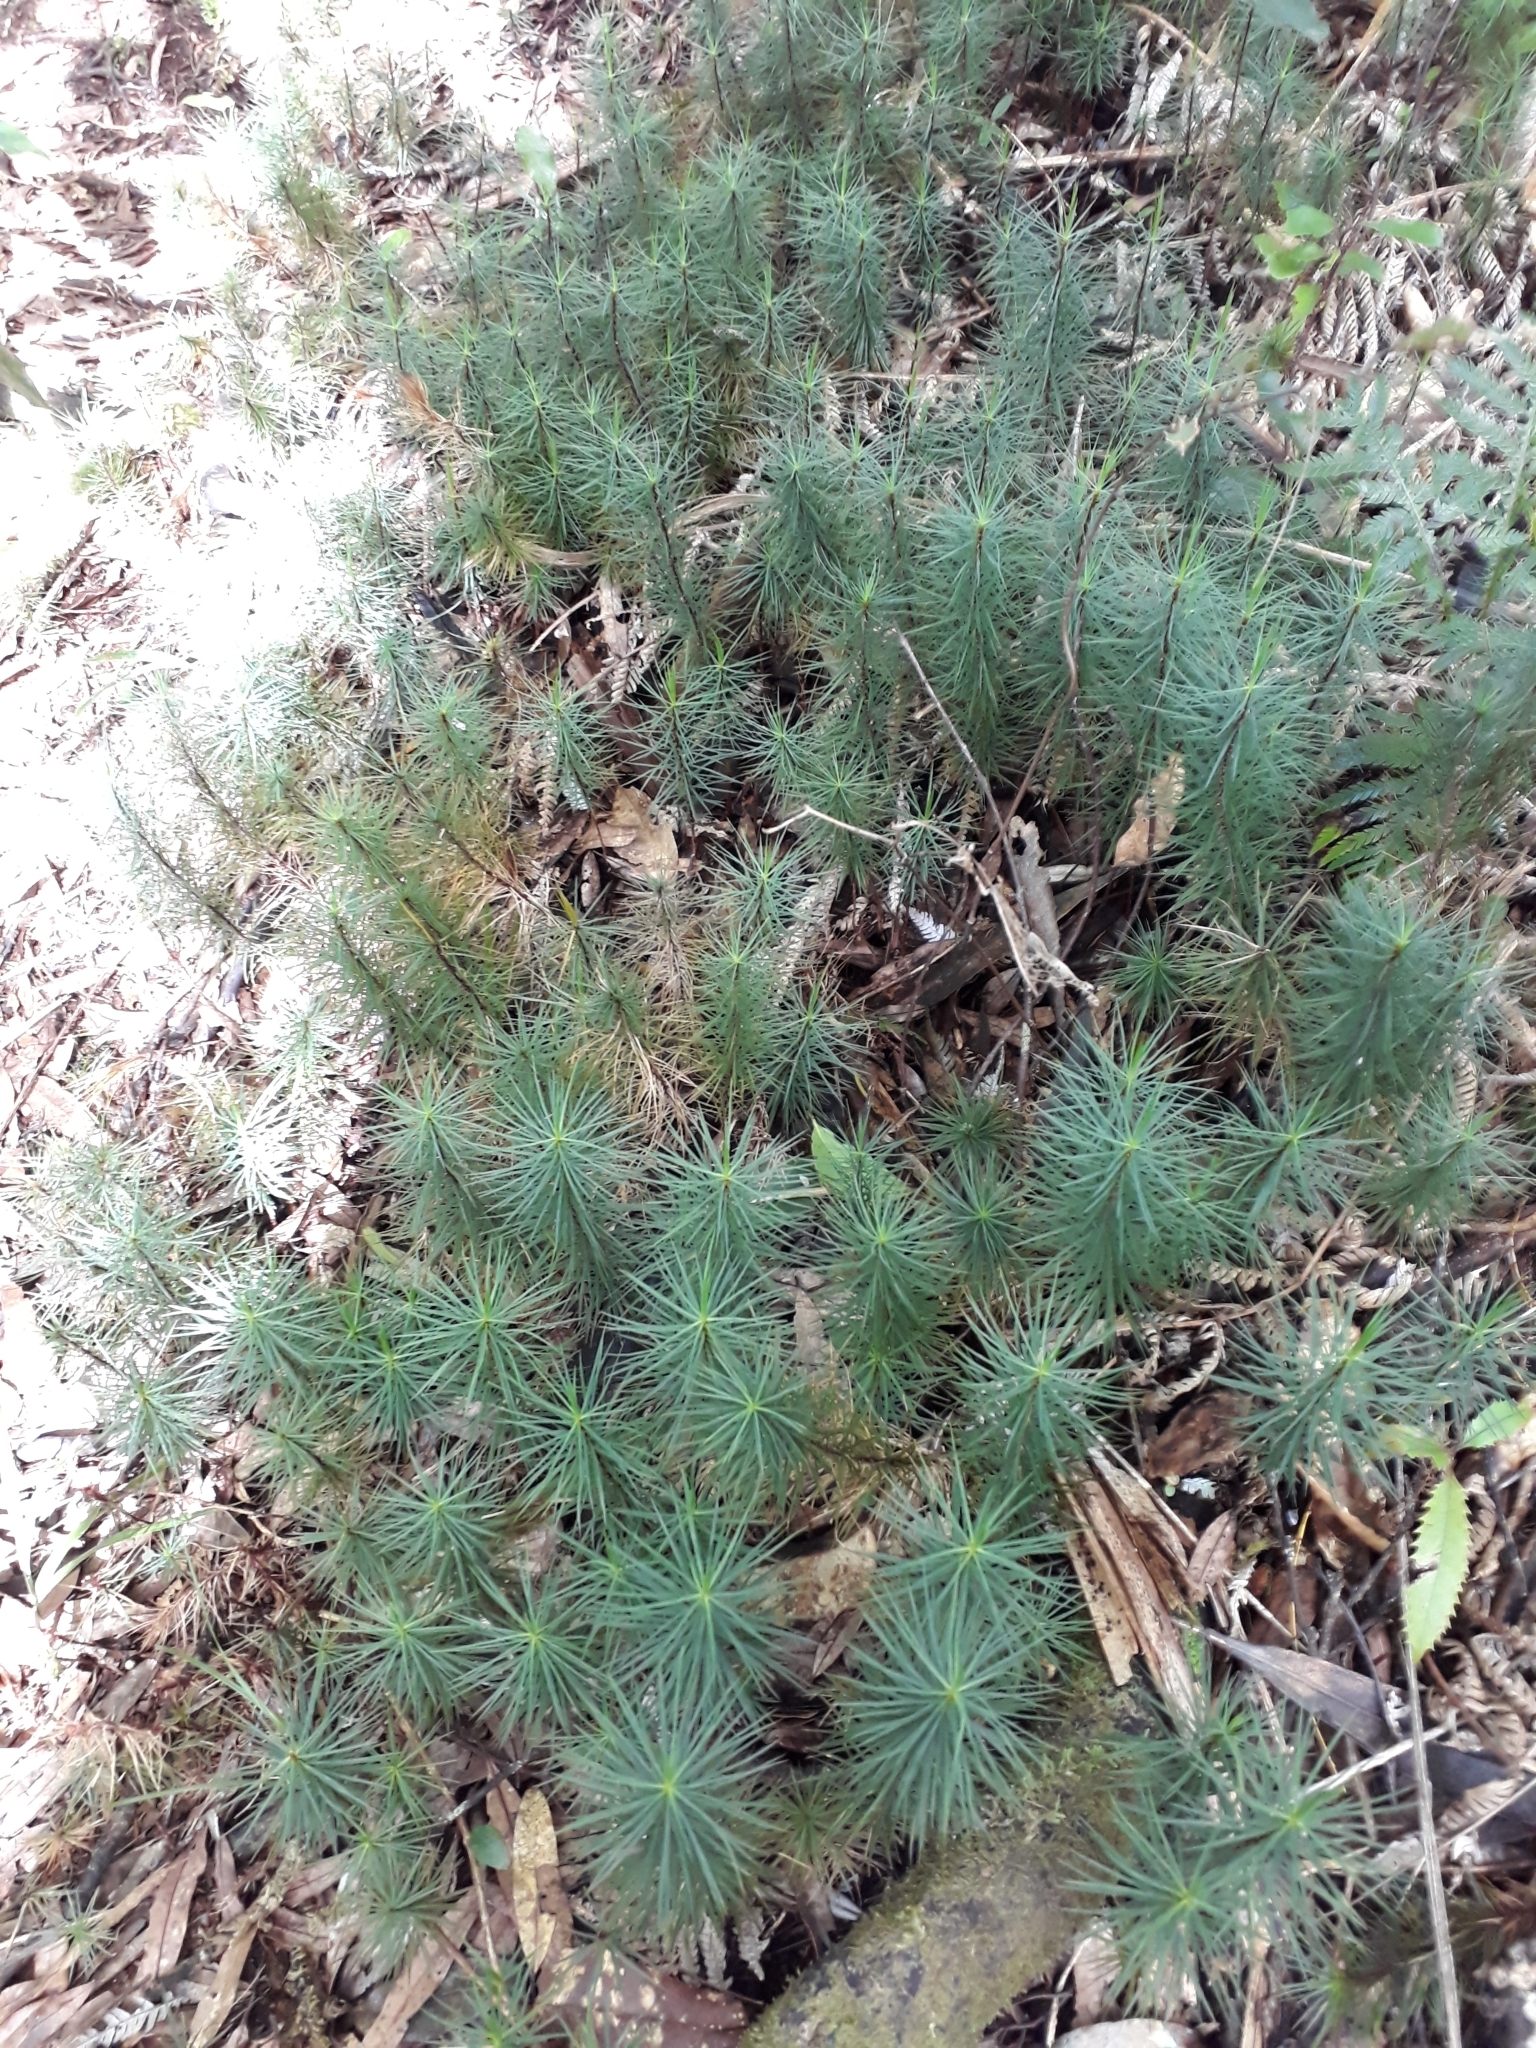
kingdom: Plantae
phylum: Bryophyta
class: Polytrichopsida
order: Polytrichales
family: Polytrichaceae
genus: Dawsonia
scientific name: Dawsonia superba
